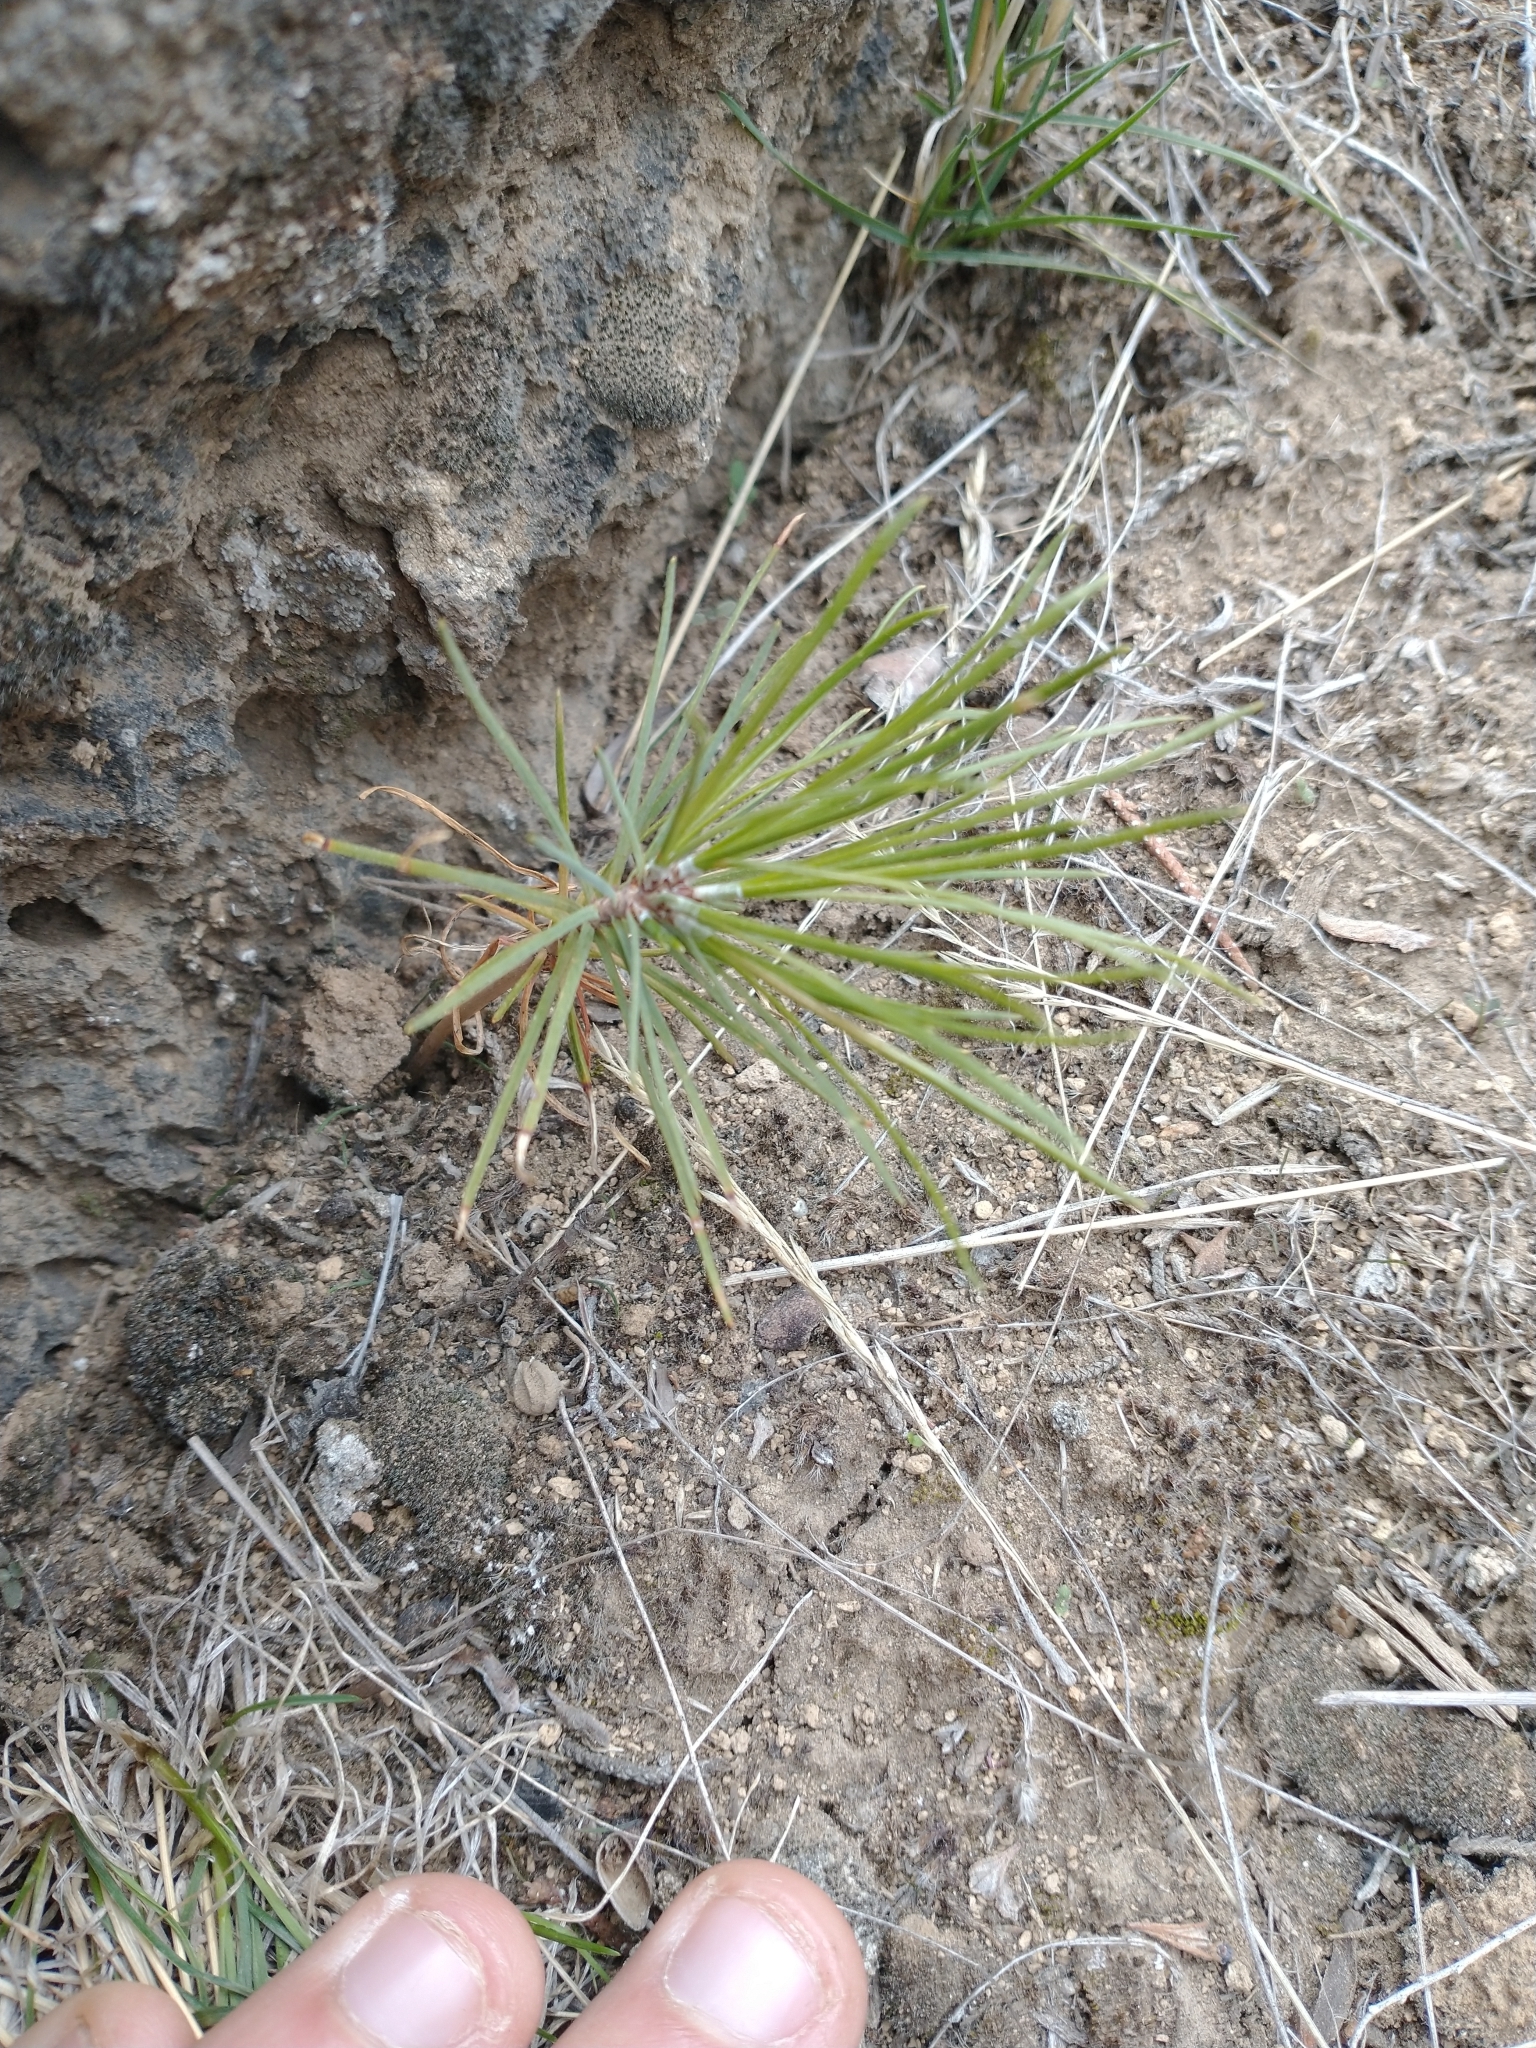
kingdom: Plantae
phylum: Tracheophyta
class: Pinopsida
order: Pinales
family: Pinaceae
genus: Pinus
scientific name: Pinus ponderosa
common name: Western yellow-pine
